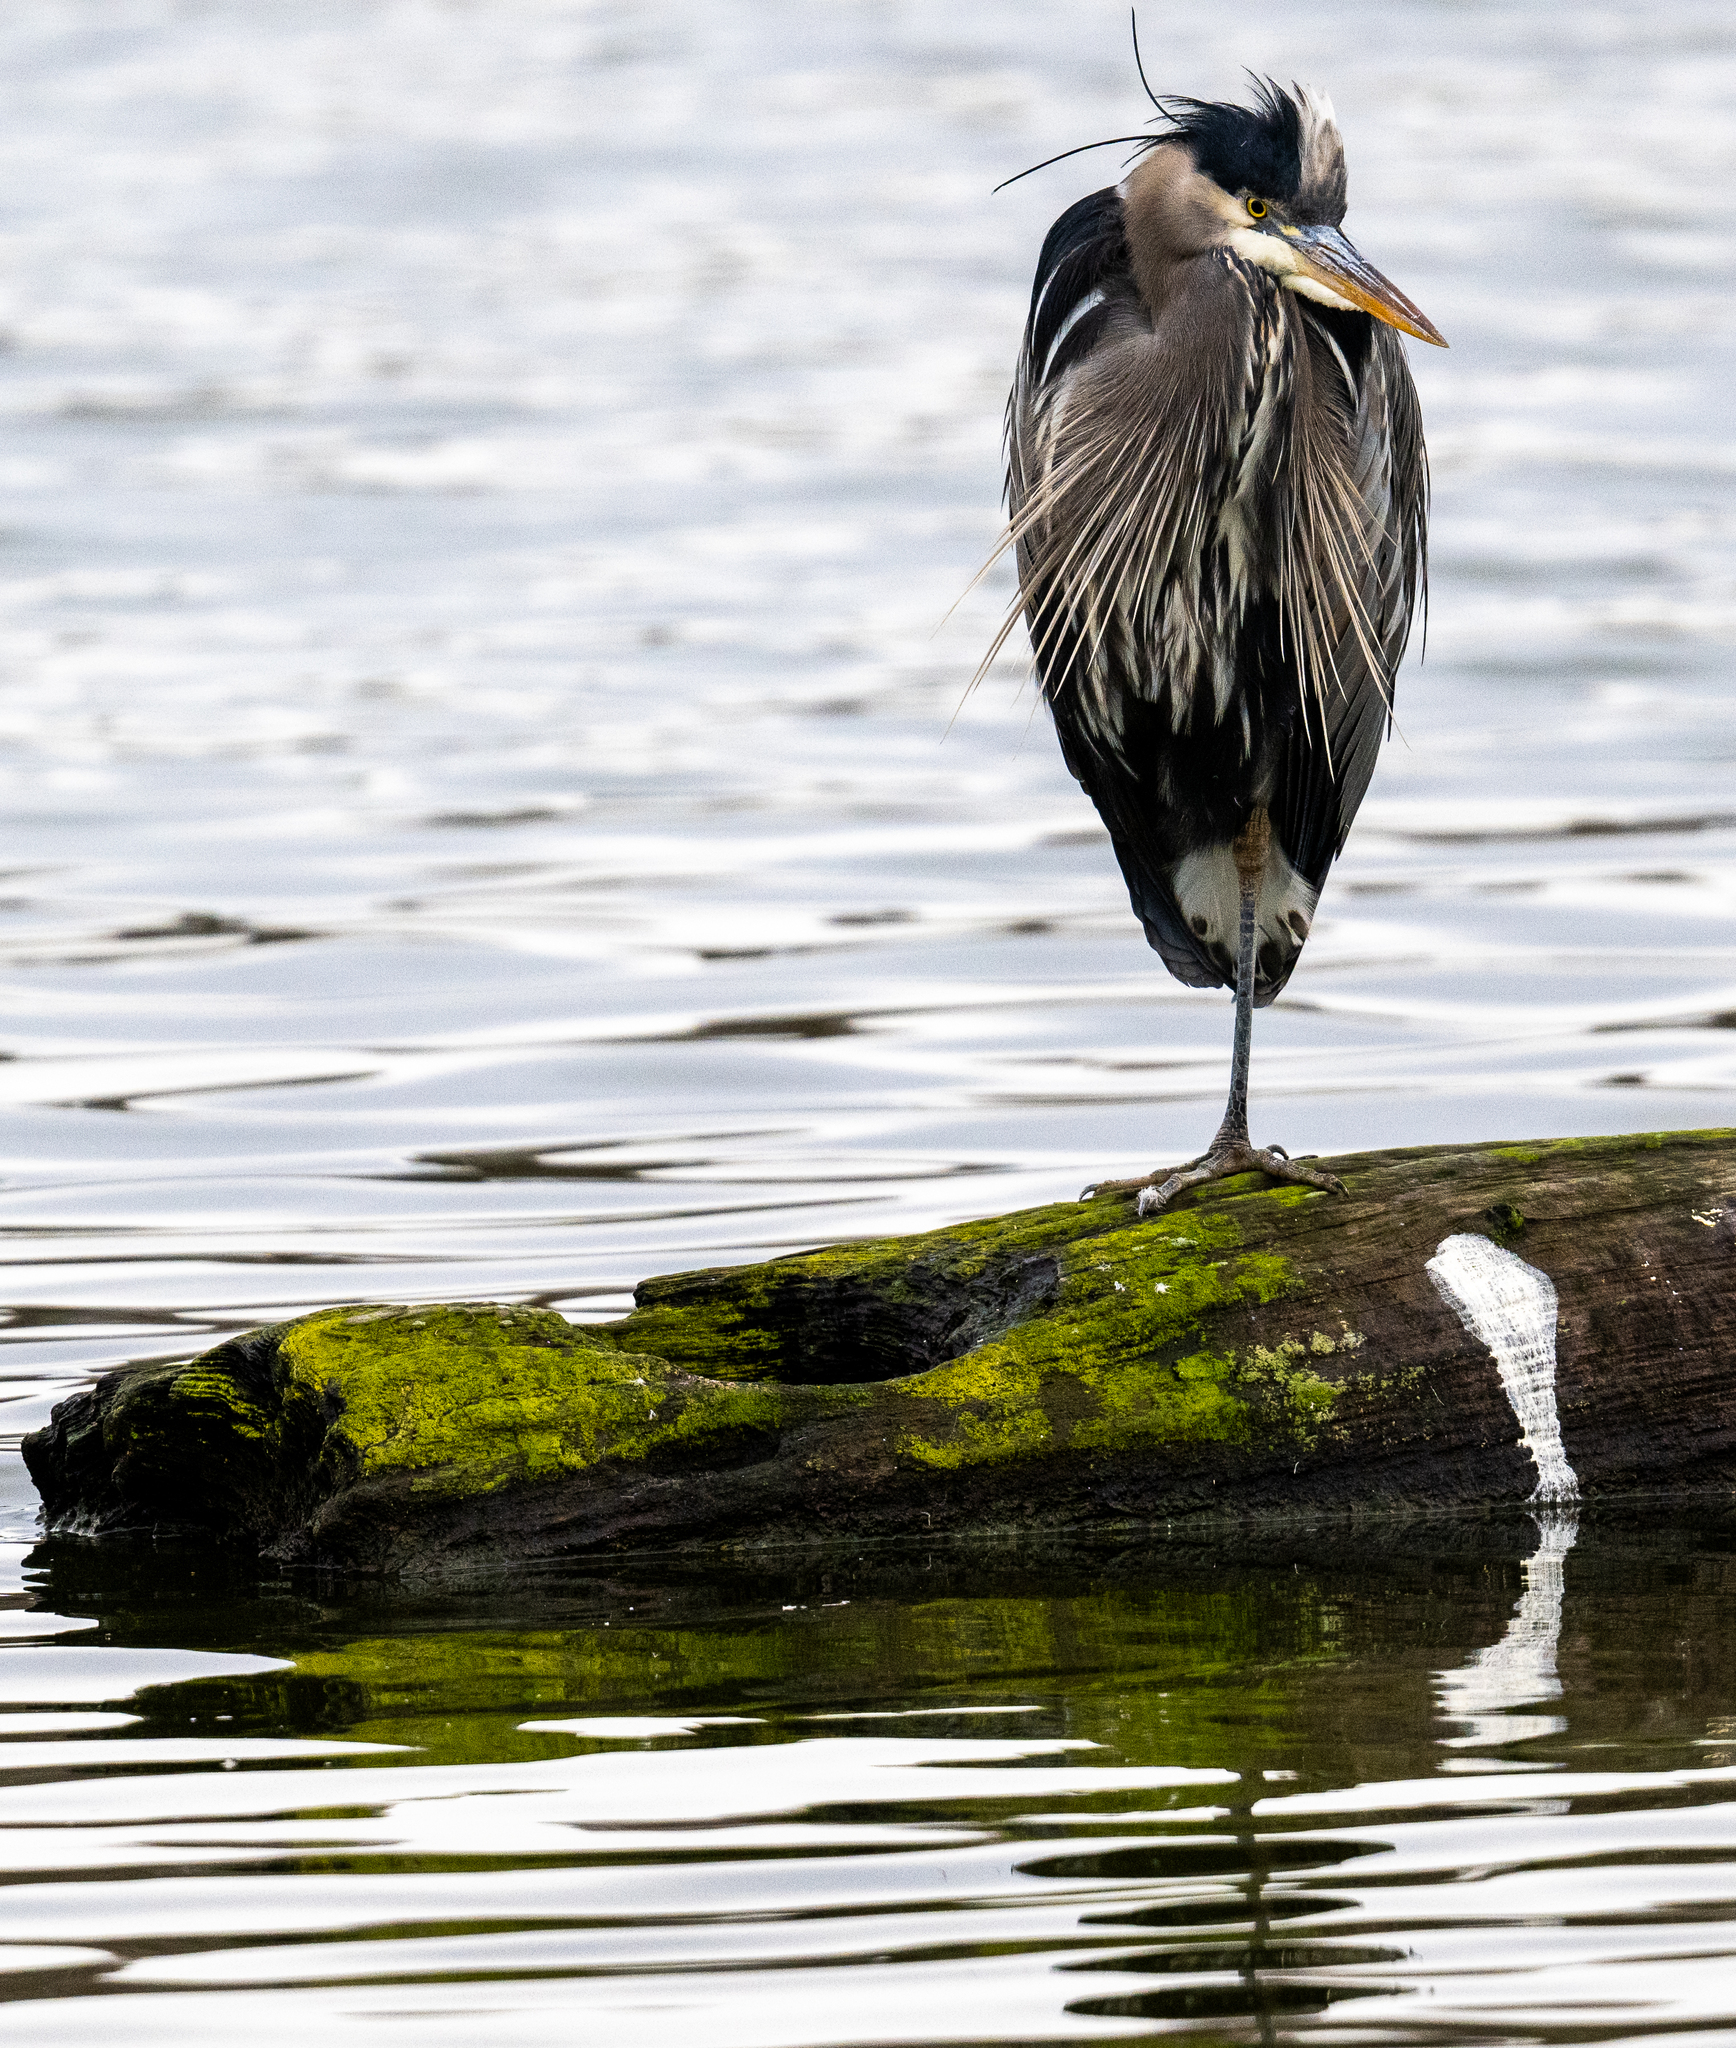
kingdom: Animalia
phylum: Chordata
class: Aves
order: Pelecaniformes
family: Ardeidae
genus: Ardea
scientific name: Ardea herodias
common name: Great blue heron
